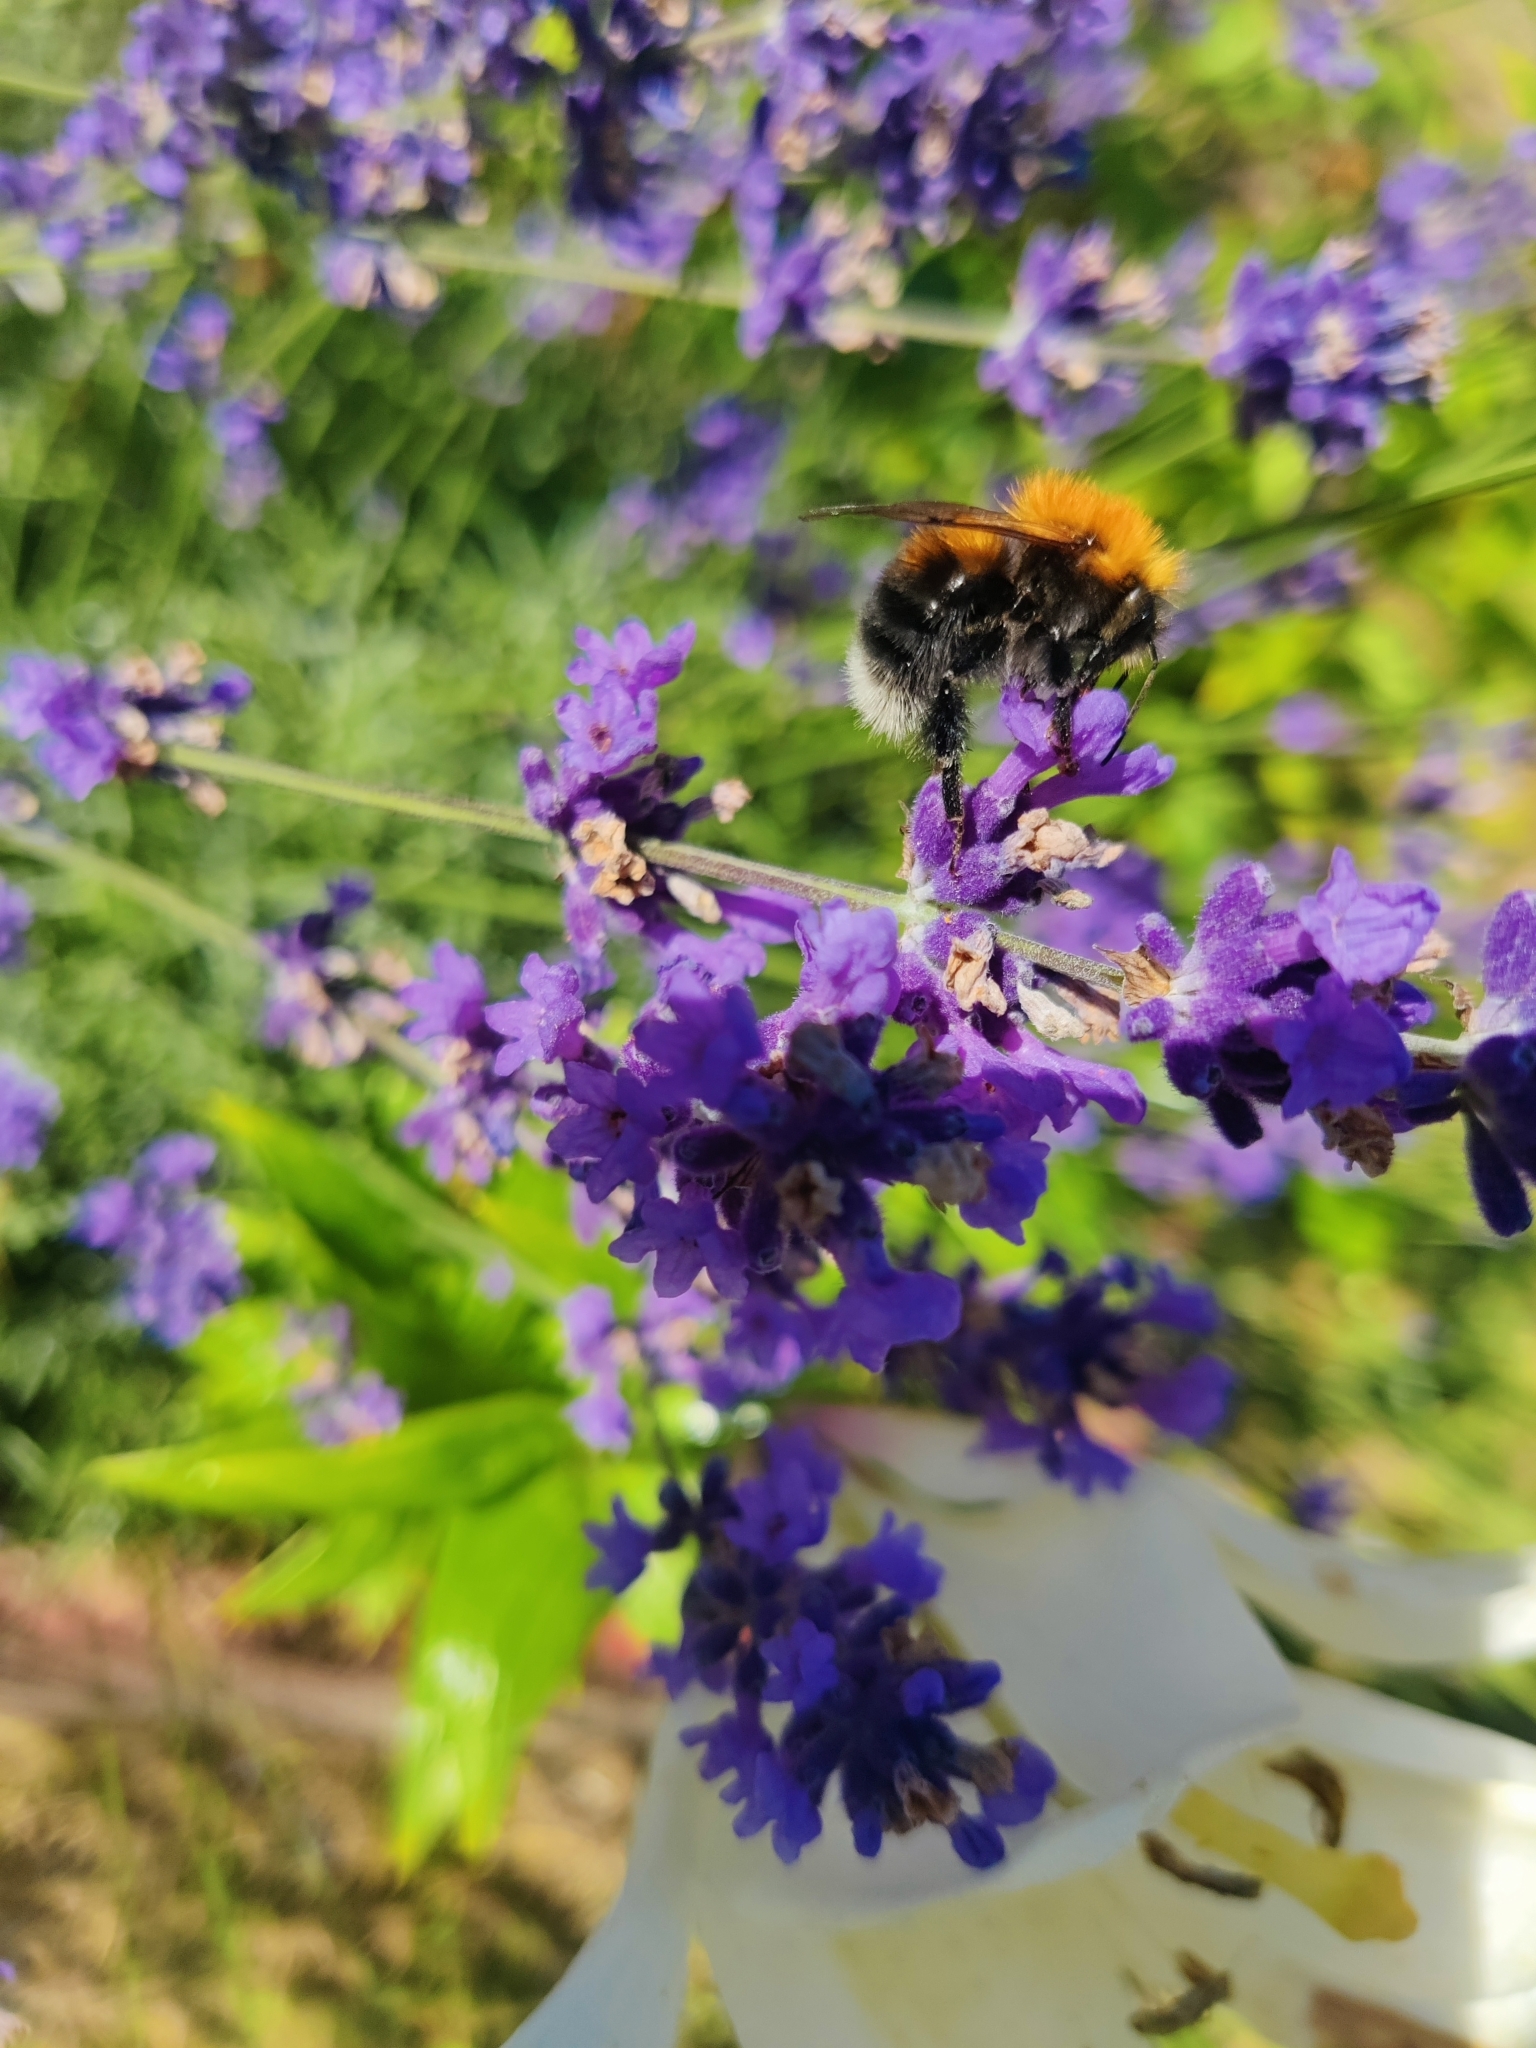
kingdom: Animalia
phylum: Arthropoda
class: Insecta
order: Hymenoptera
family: Apidae
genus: Bombus
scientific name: Bombus hypnorum
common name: New garden bumblebee
